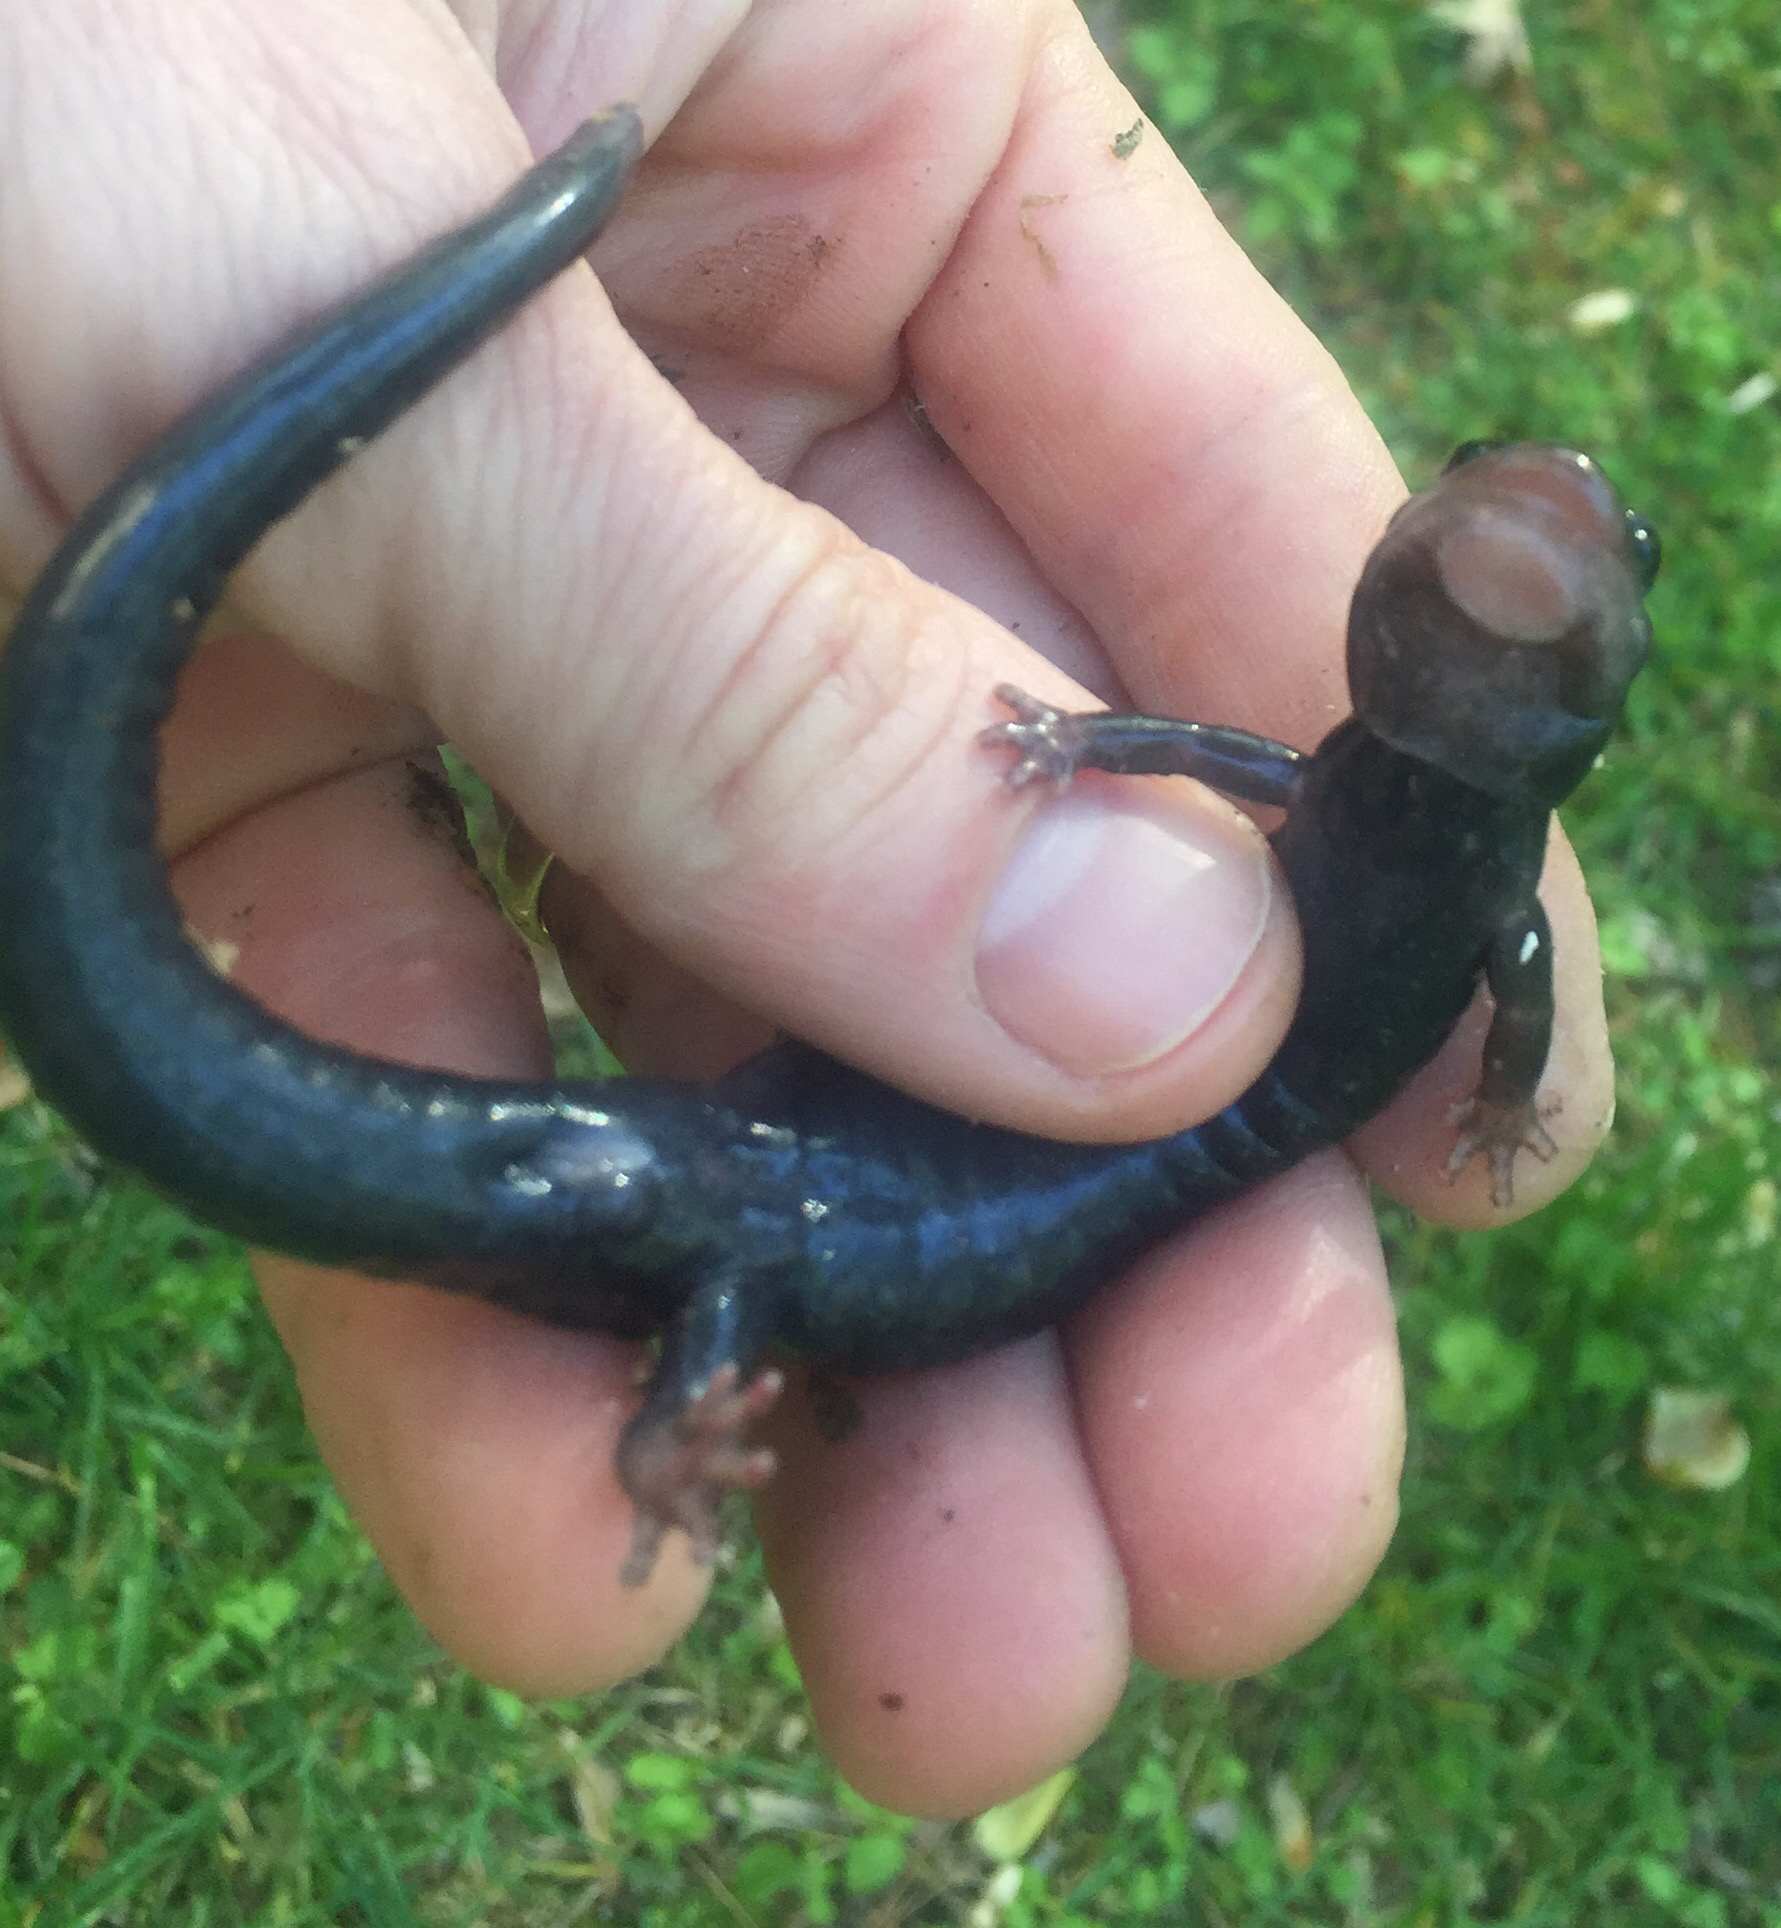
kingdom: Animalia
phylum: Chordata
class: Amphibia
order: Caudata
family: Plethodontidae
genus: Plethodon
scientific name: Plethodon cylindraceus
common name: White-spotted slimy salamander
